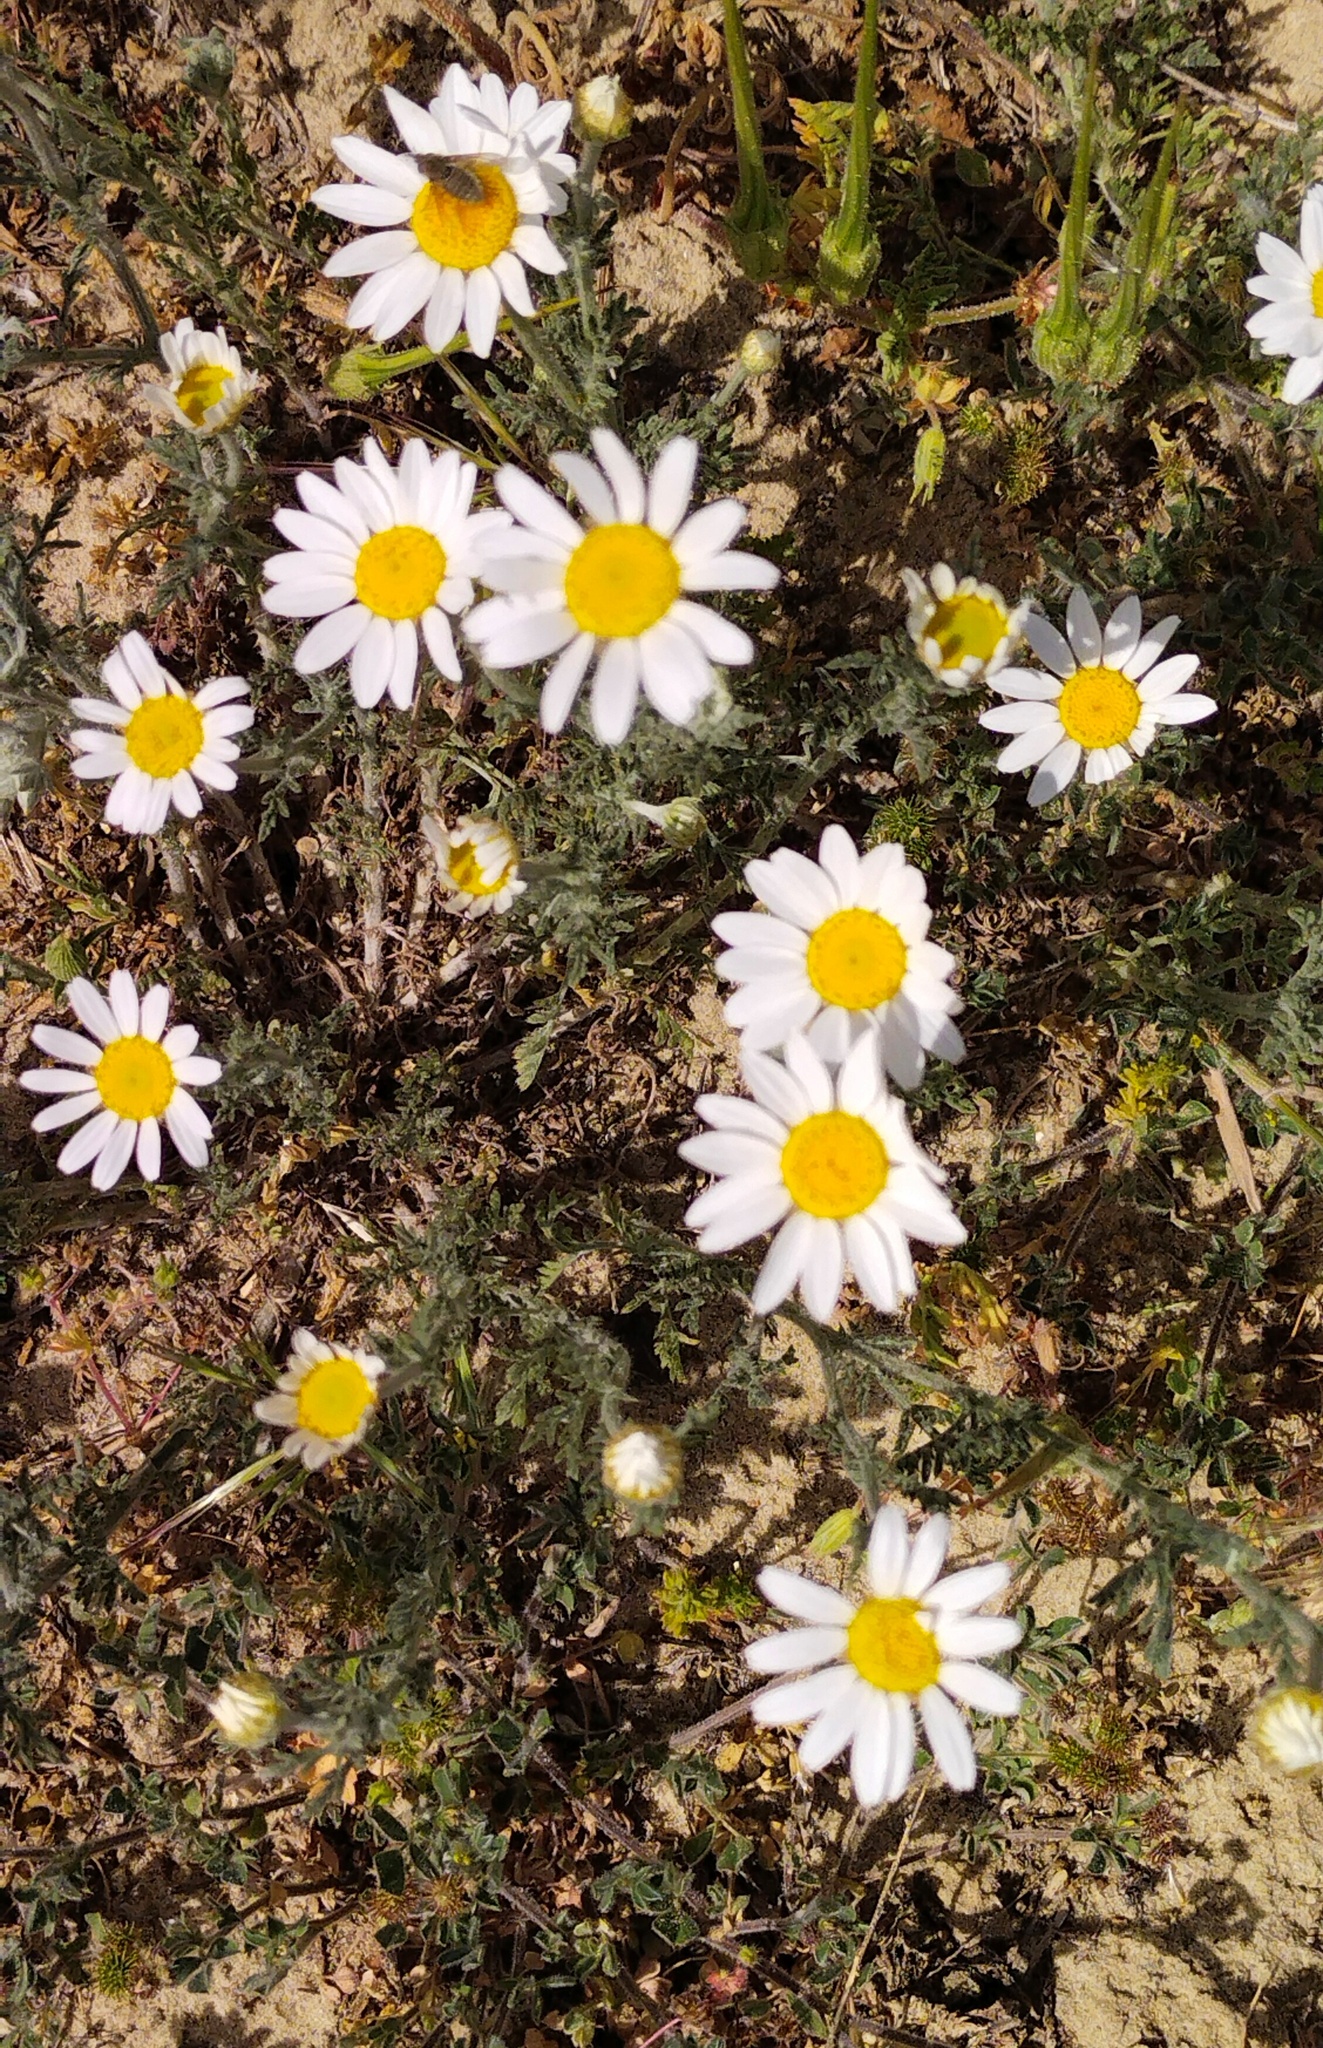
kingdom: Plantae
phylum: Tracheophyta
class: Magnoliopsida
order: Asterales
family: Asteraceae
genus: Anthemis
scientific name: Anthemis ruthenica
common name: Eastern chamomile
